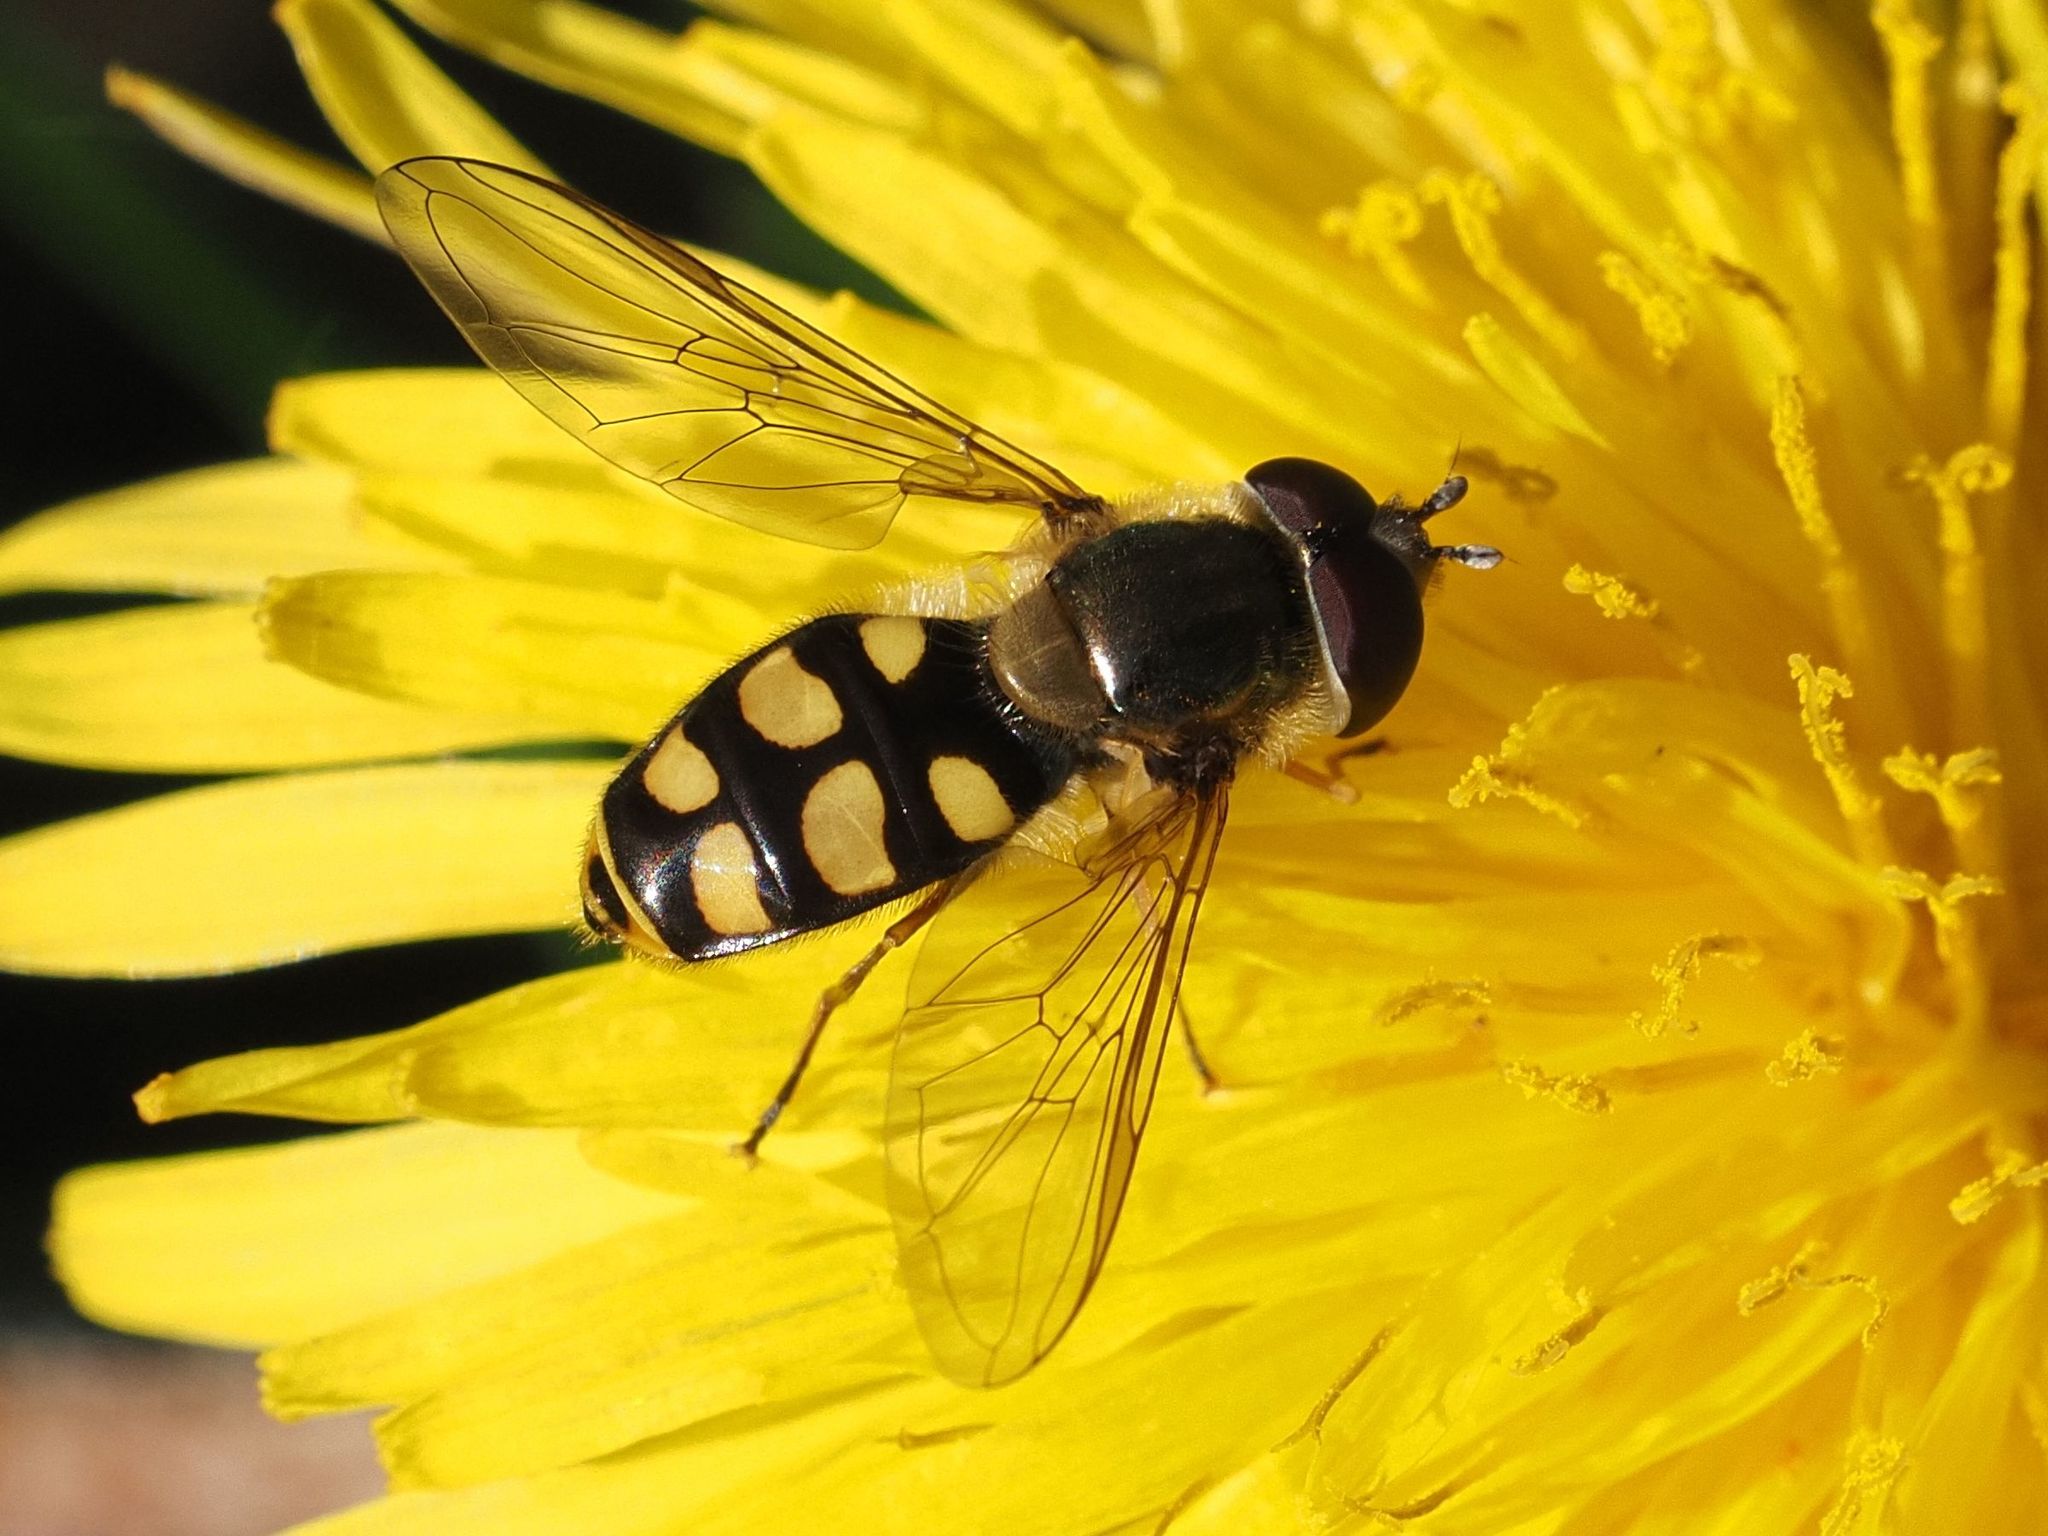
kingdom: Animalia
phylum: Arthropoda
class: Insecta
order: Diptera
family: Syrphidae
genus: Eupeodes
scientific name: Eupeodes luniger
